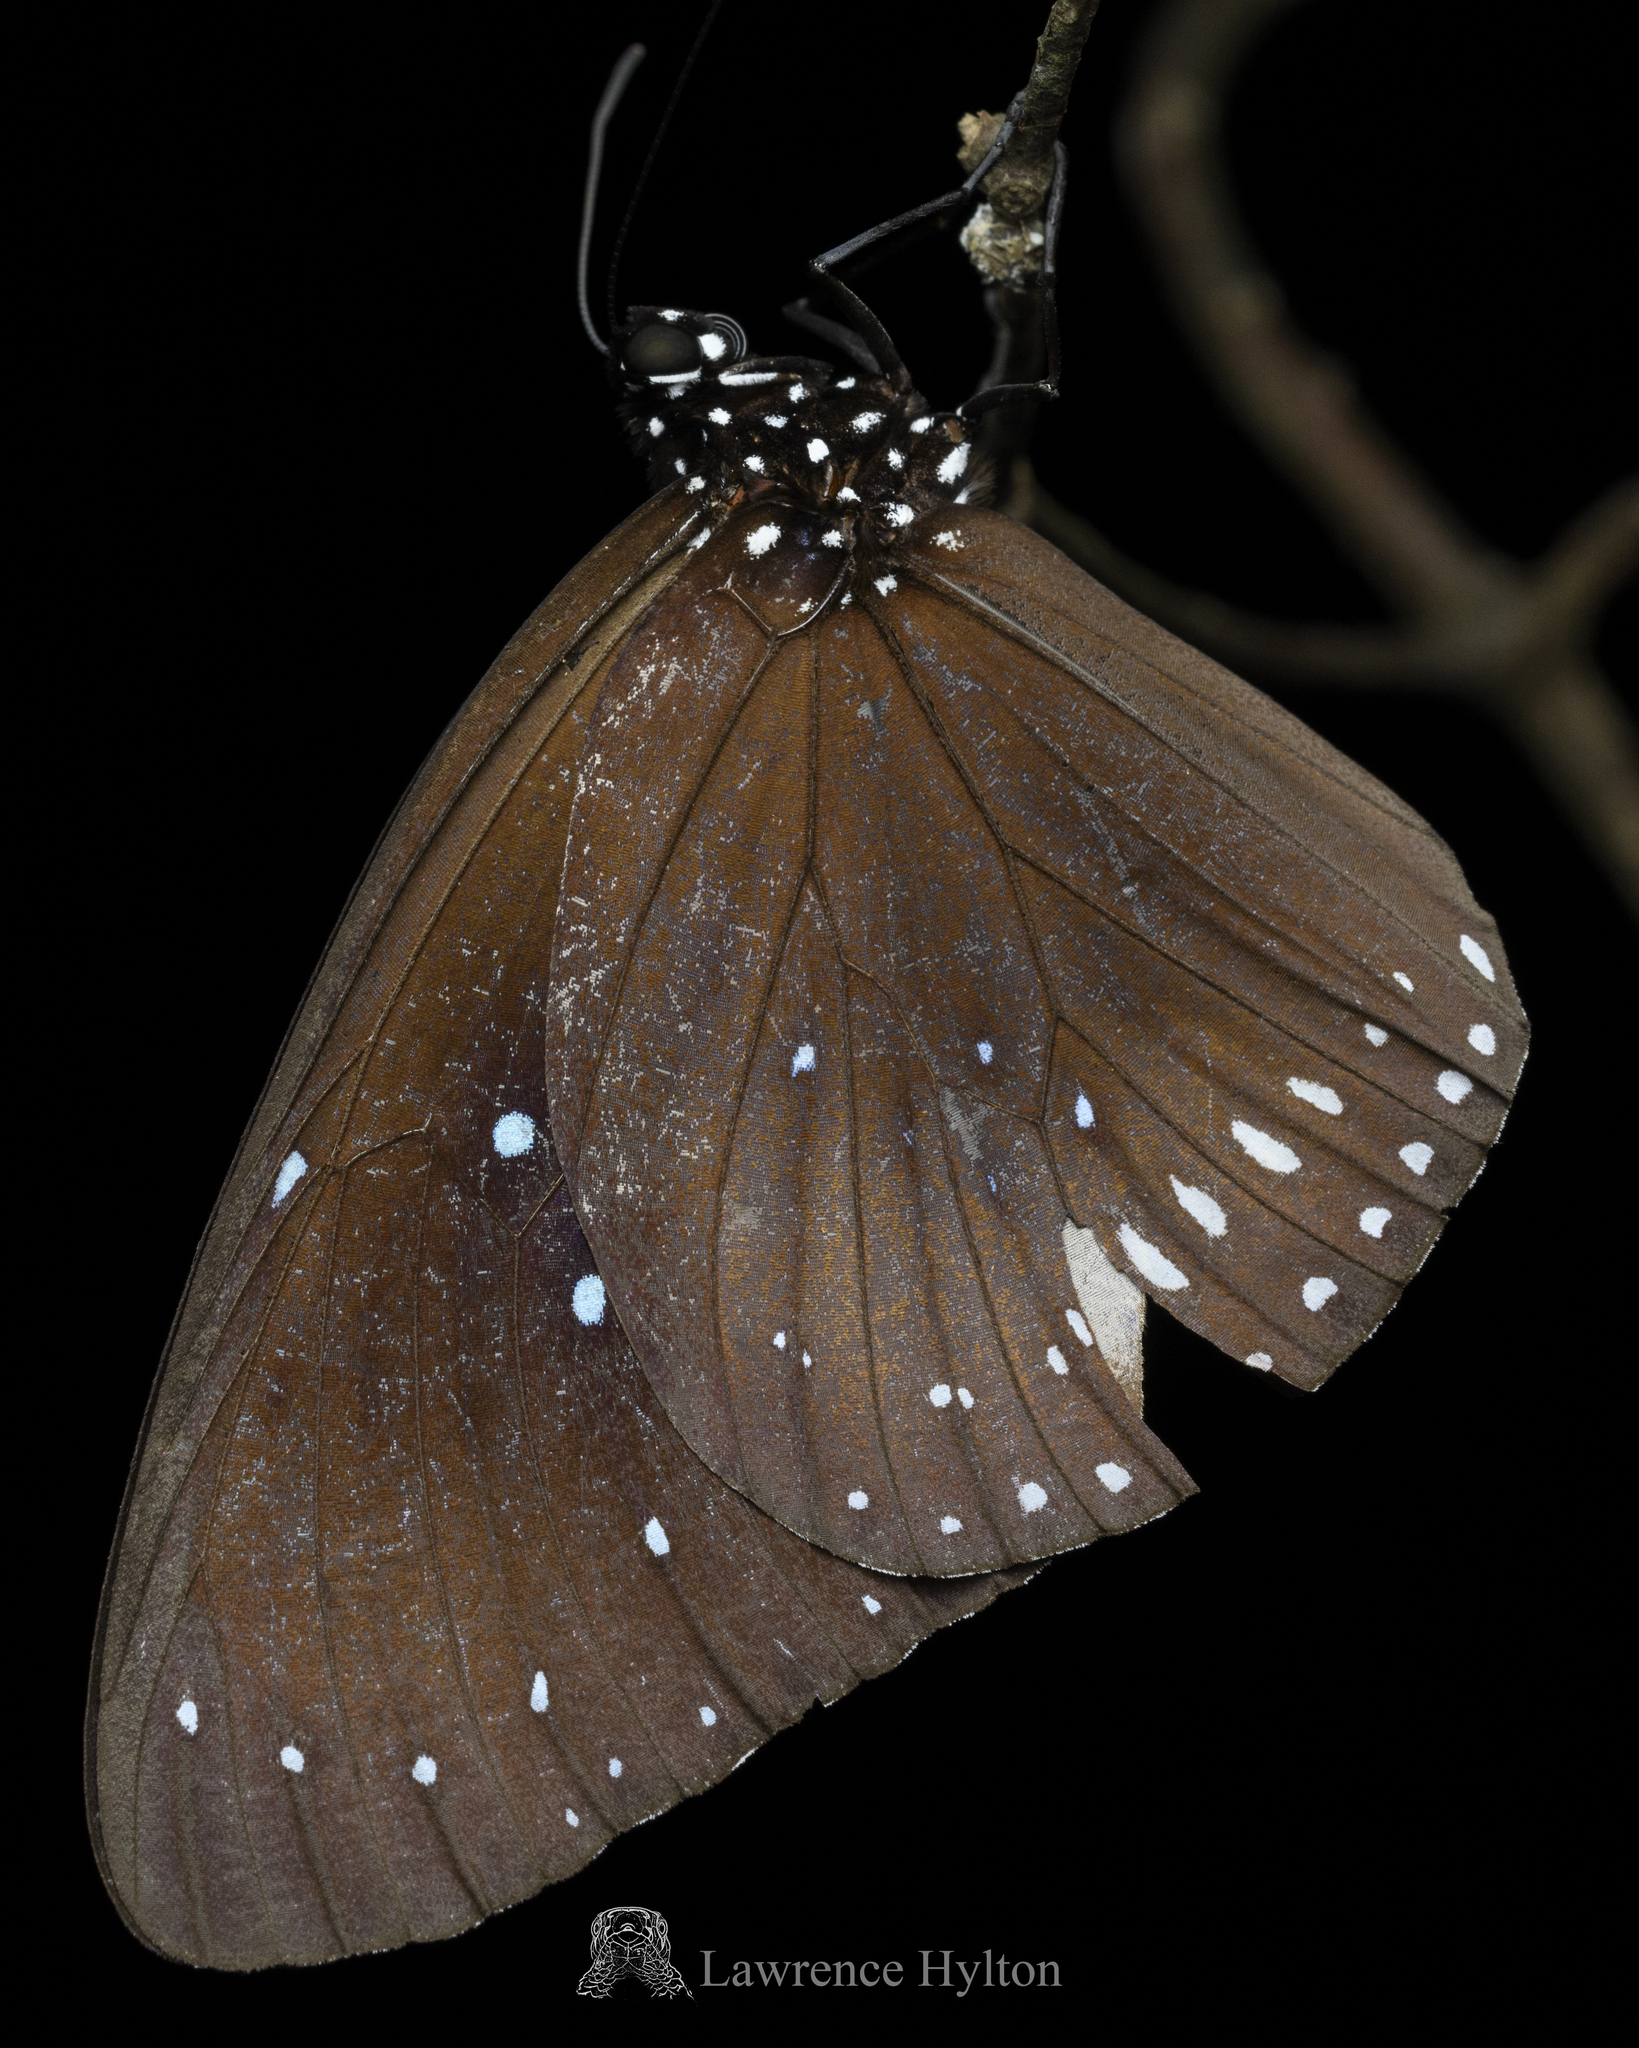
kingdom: Animalia
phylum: Arthropoda
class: Insecta
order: Lepidoptera
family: Nymphalidae
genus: Euploea
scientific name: Euploea midamus
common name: Blue-spotted crow butterfly
